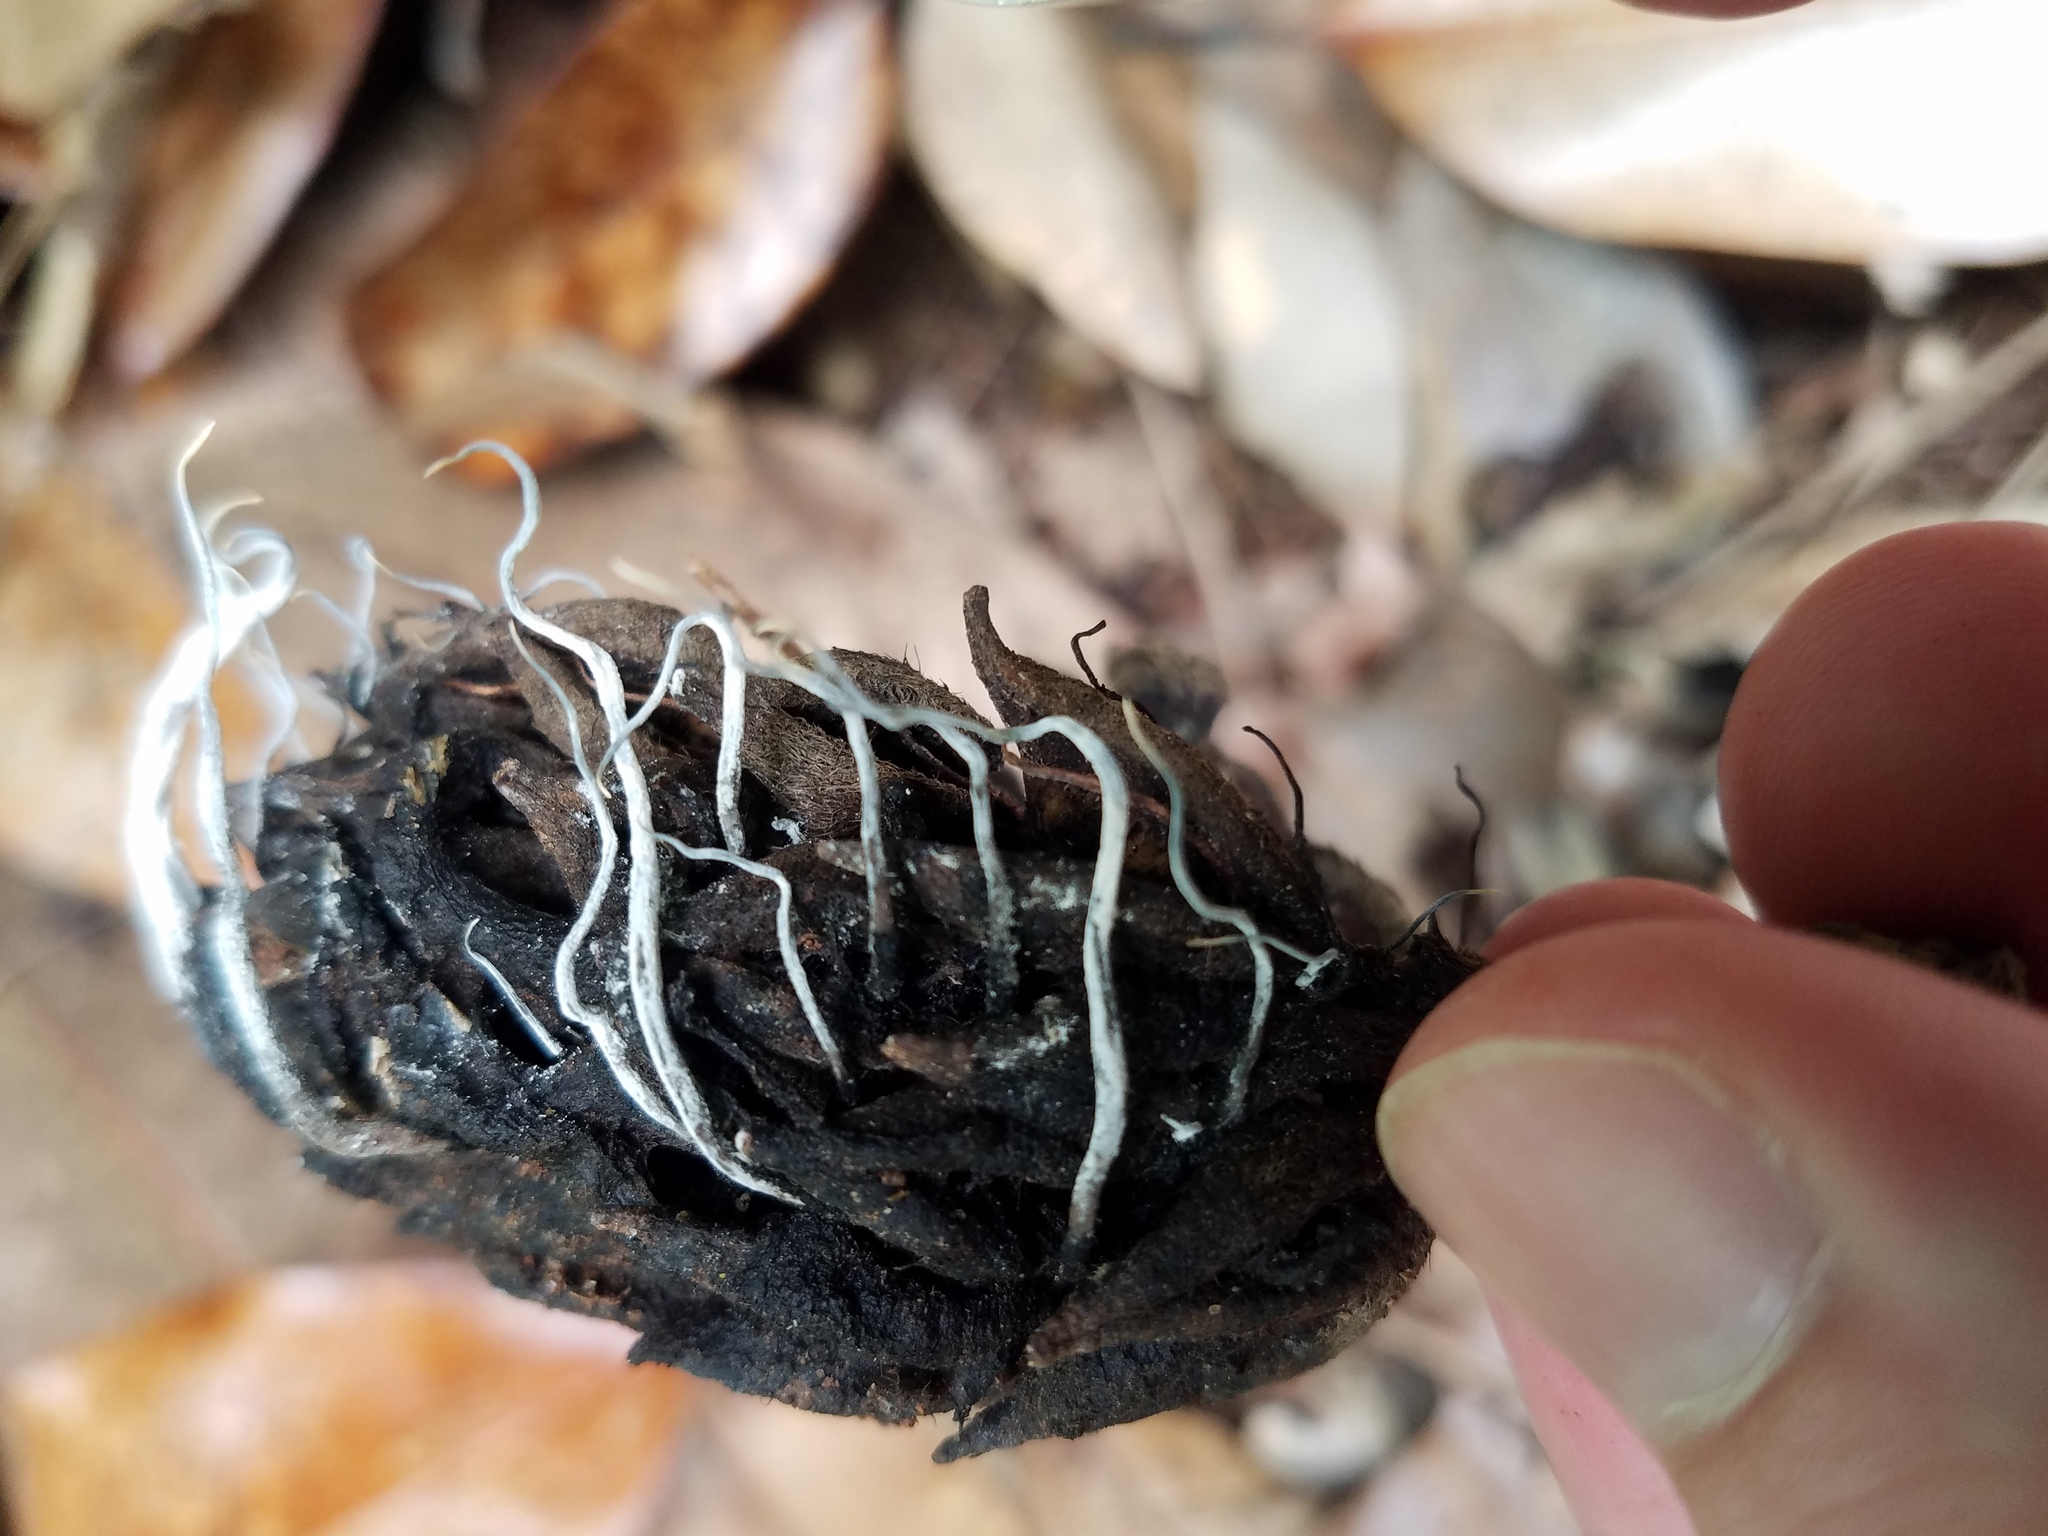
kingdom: Fungi
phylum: Ascomycota
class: Sordariomycetes
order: Xylariales
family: Xylariaceae
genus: Xylaria
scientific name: Xylaria magnoliae
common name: Magnolia-cone xylaria
